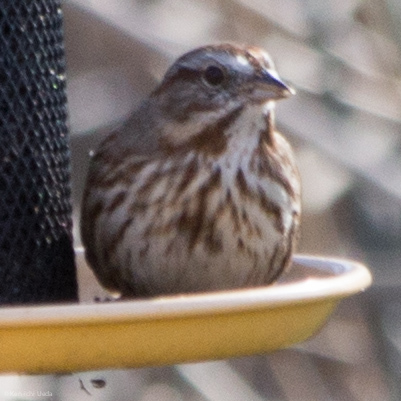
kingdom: Animalia
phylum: Chordata
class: Aves
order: Passeriformes
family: Passerellidae
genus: Melospiza
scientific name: Melospiza melodia
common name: Song sparrow
